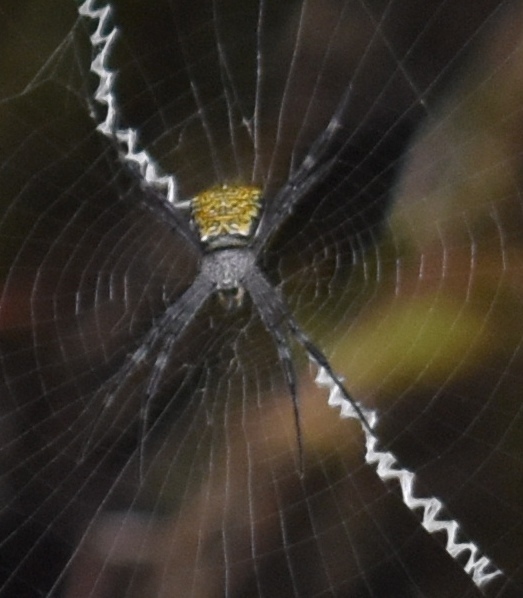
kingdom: Animalia
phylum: Arthropoda
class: Arachnida
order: Araneae
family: Araneidae
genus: Argiope
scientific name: Argiope appensa
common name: Garden spider
